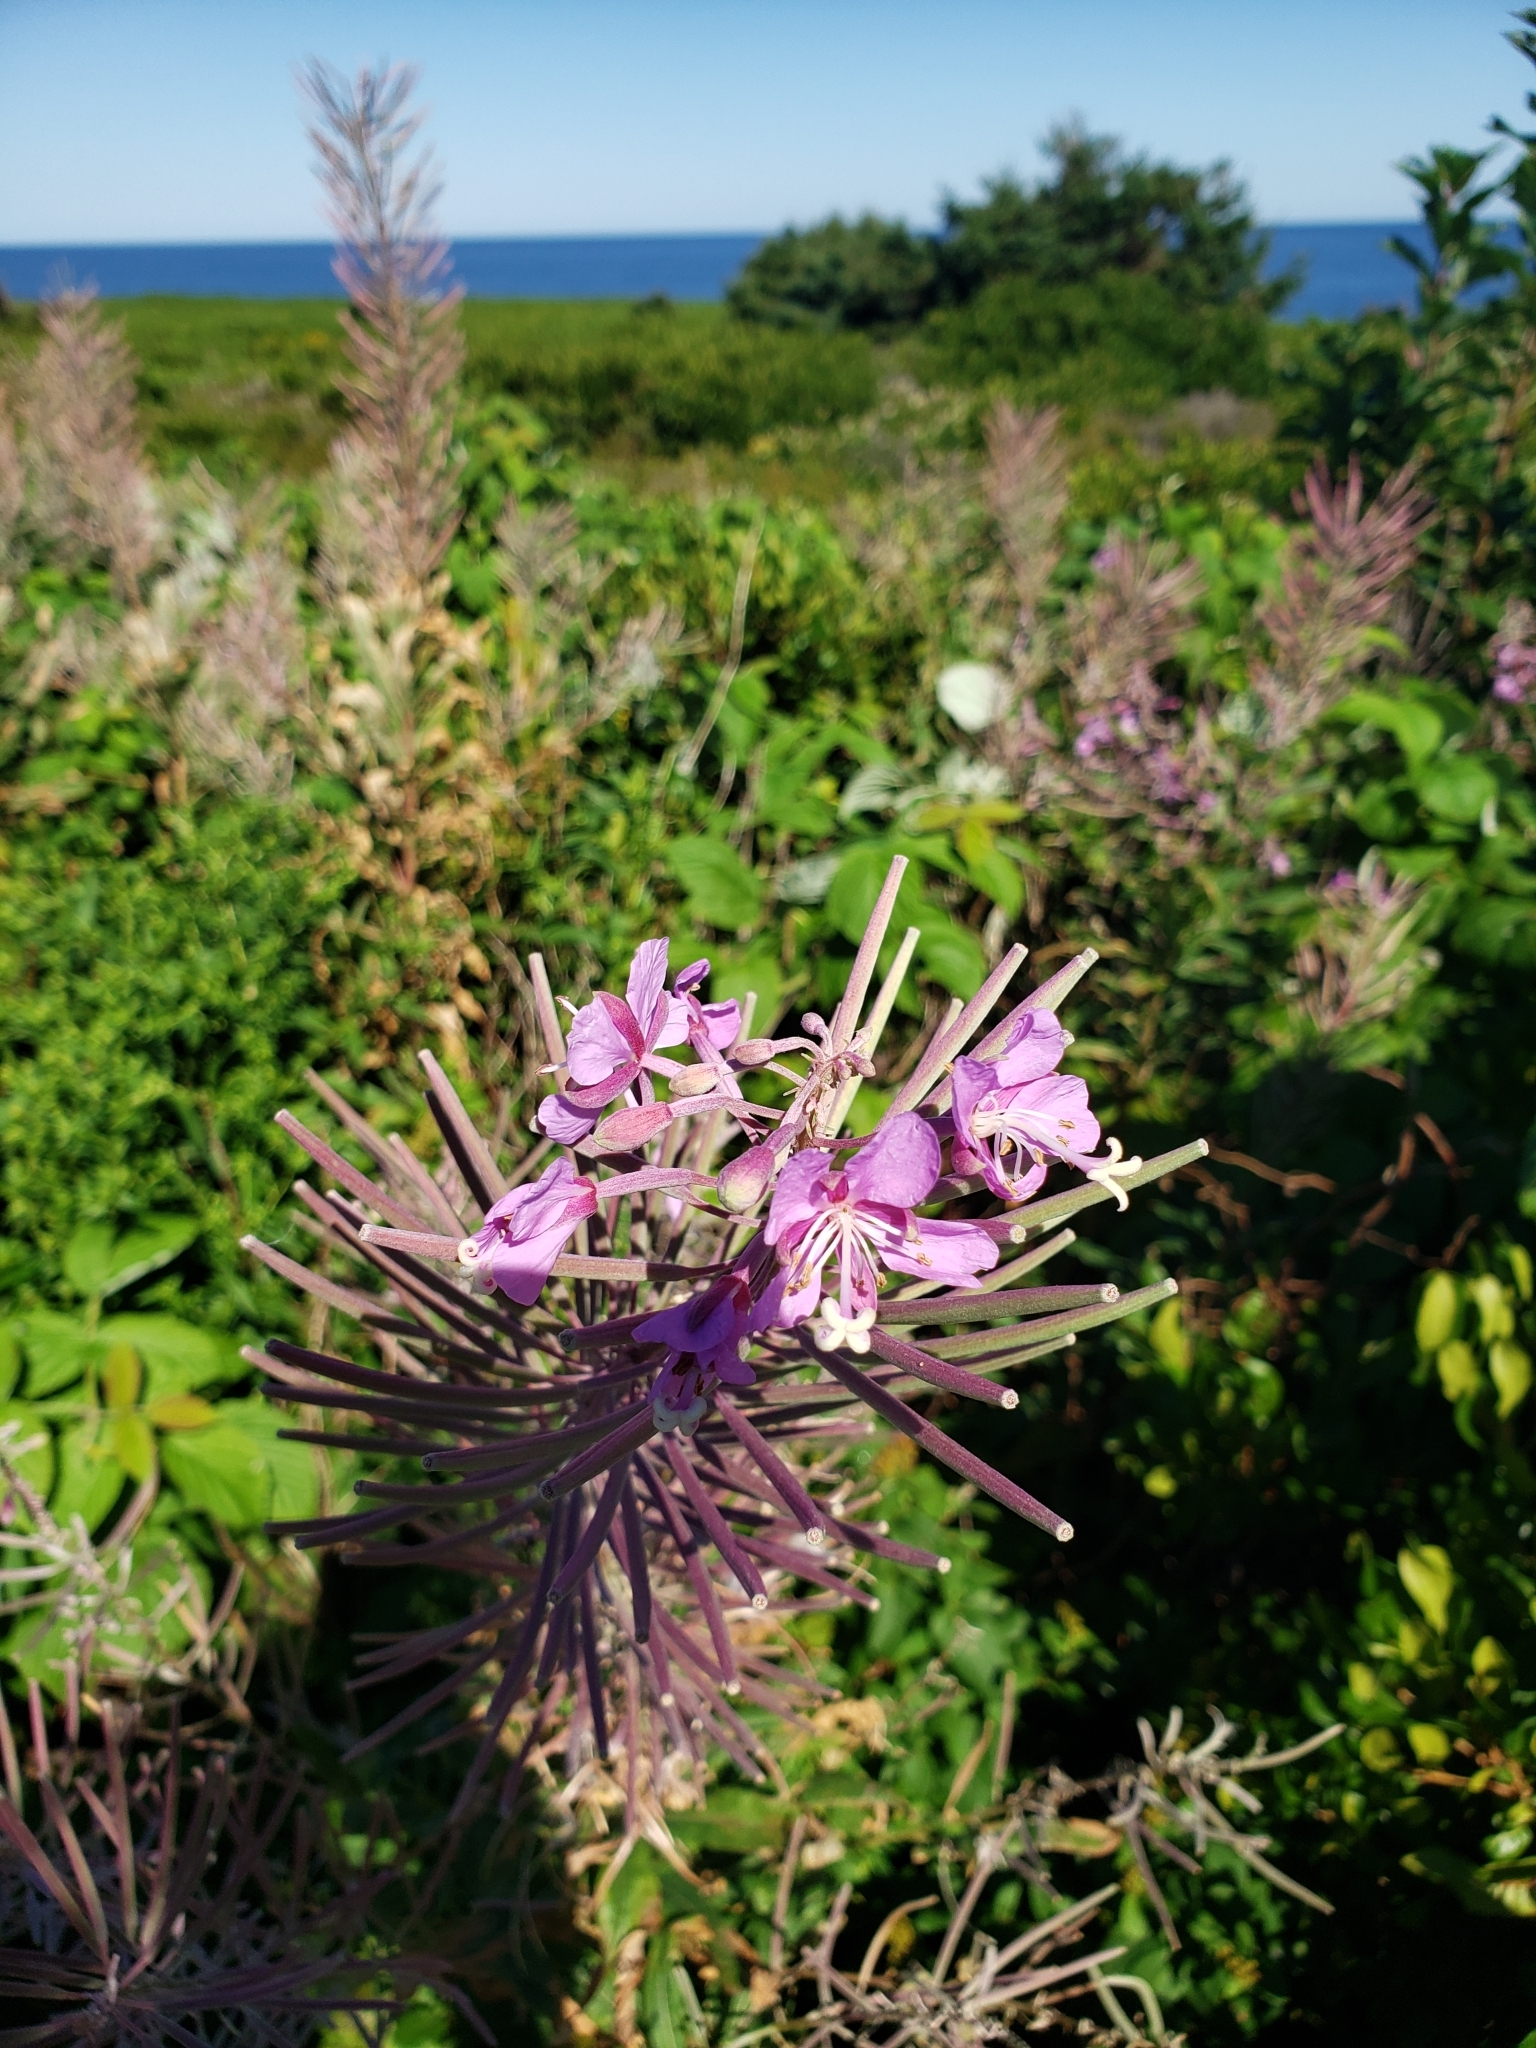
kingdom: Plantae
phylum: Tracheophyta
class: Magnoliopsida
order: Myrtales
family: Onagraceae
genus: Chamaenerion
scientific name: Chamaenerion angustifolium
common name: Fireweed
